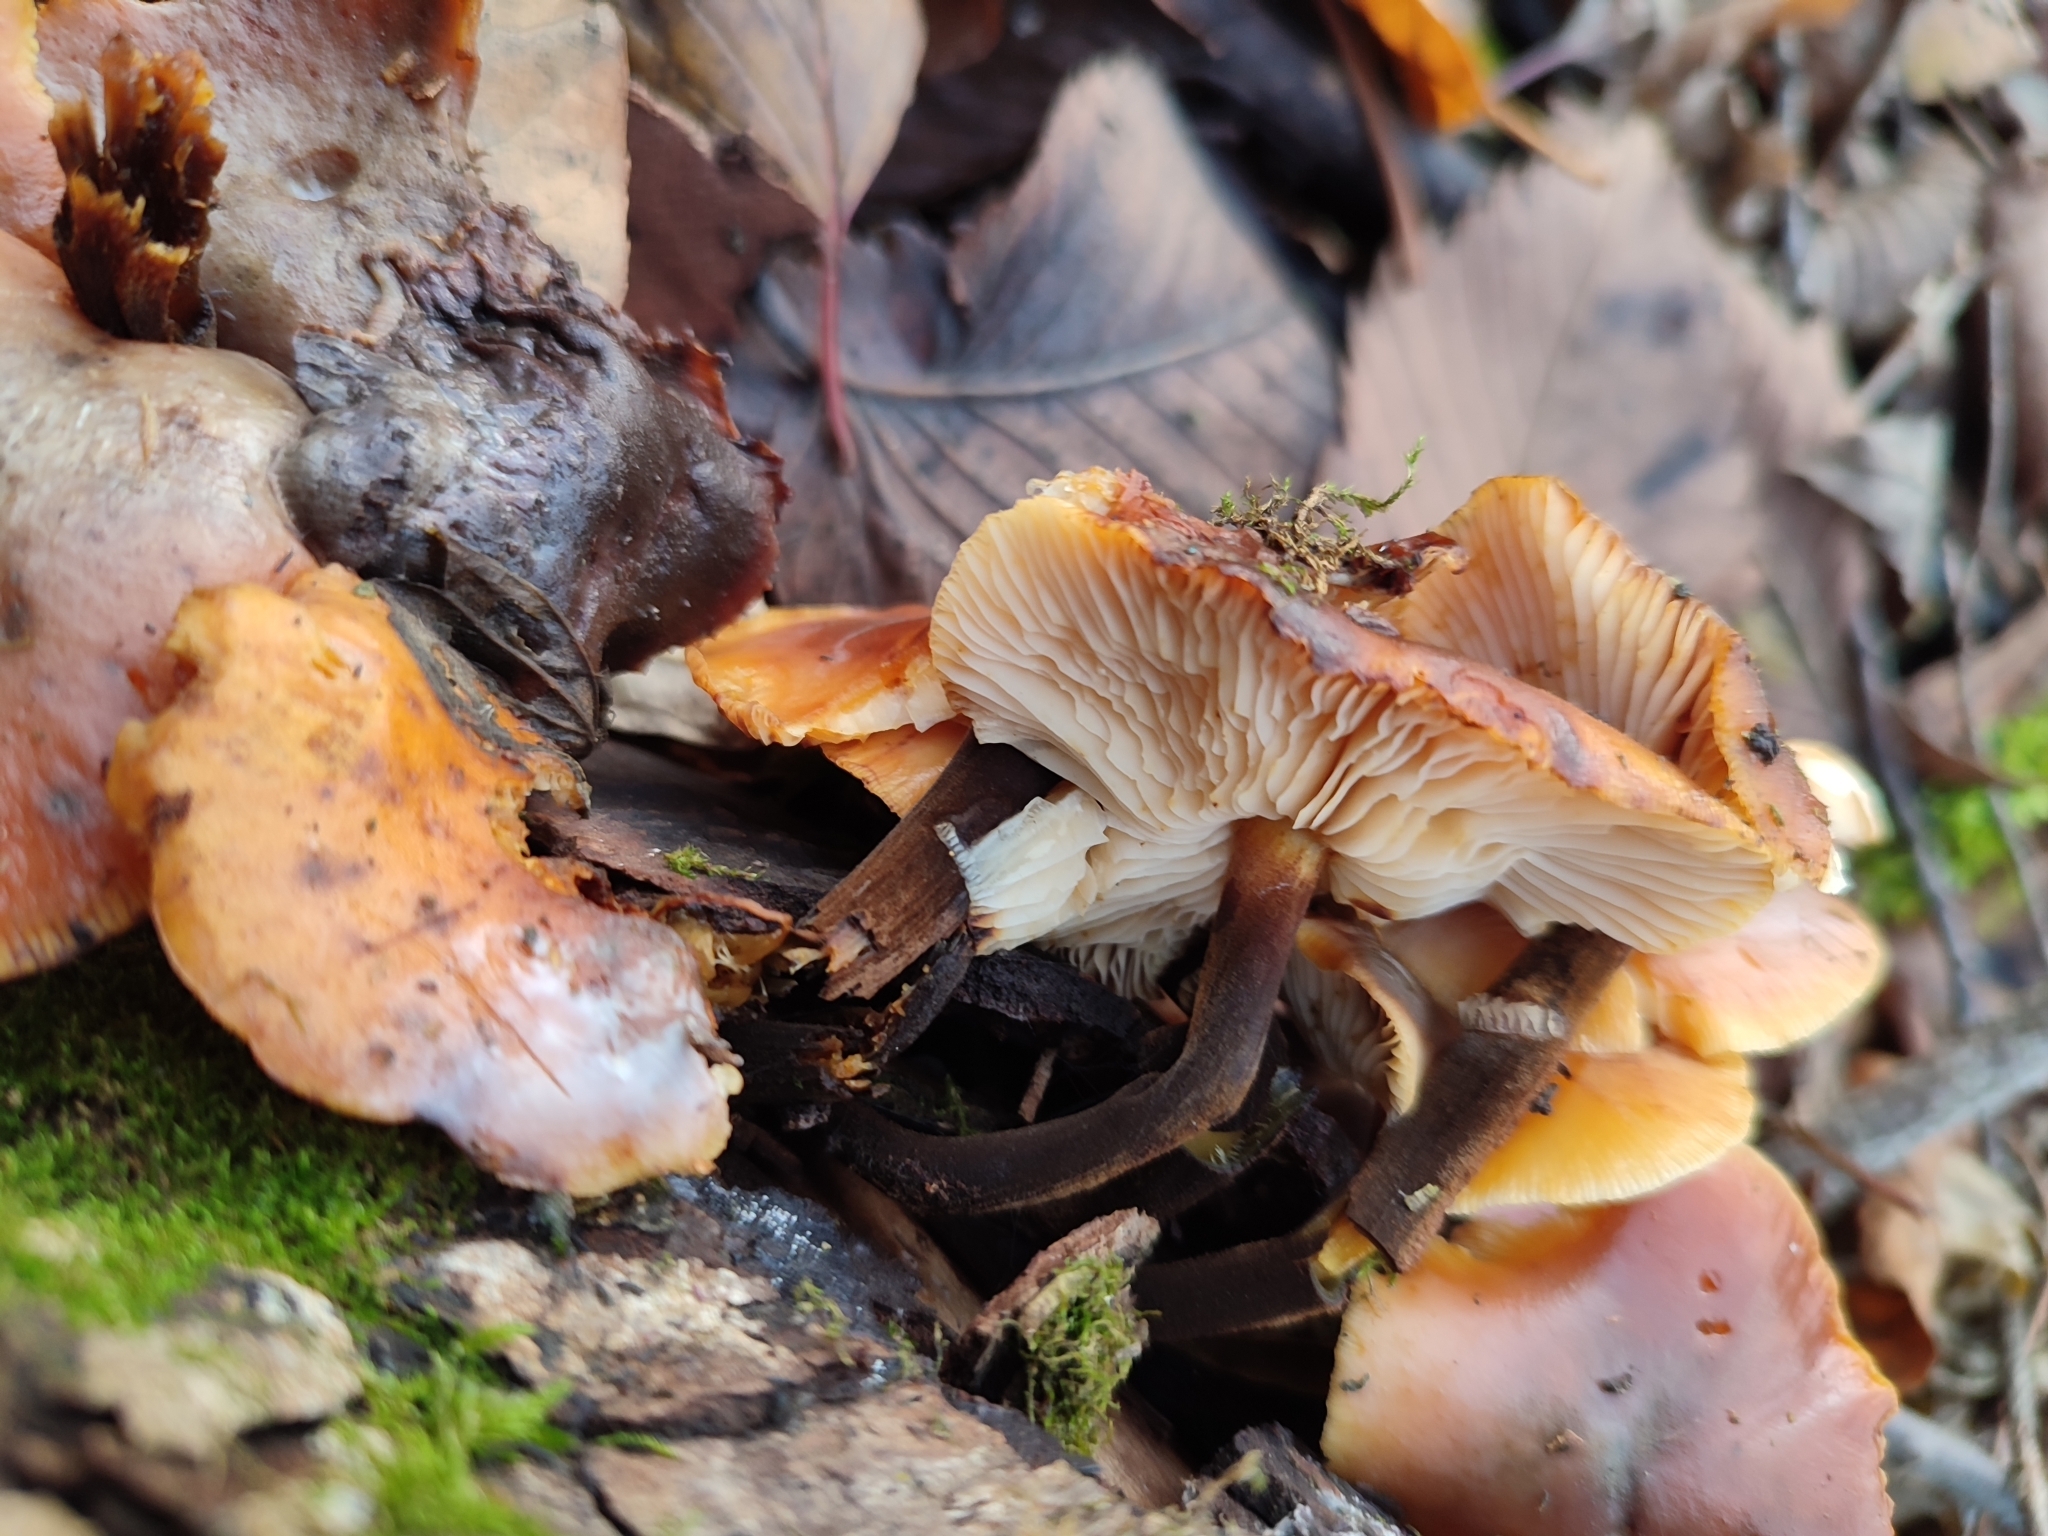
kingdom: Fungi
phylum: Basidiomycota
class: Agaricomycetes
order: Agaricales
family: Physalacriaceae
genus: Flammulina
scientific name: Flammulina
